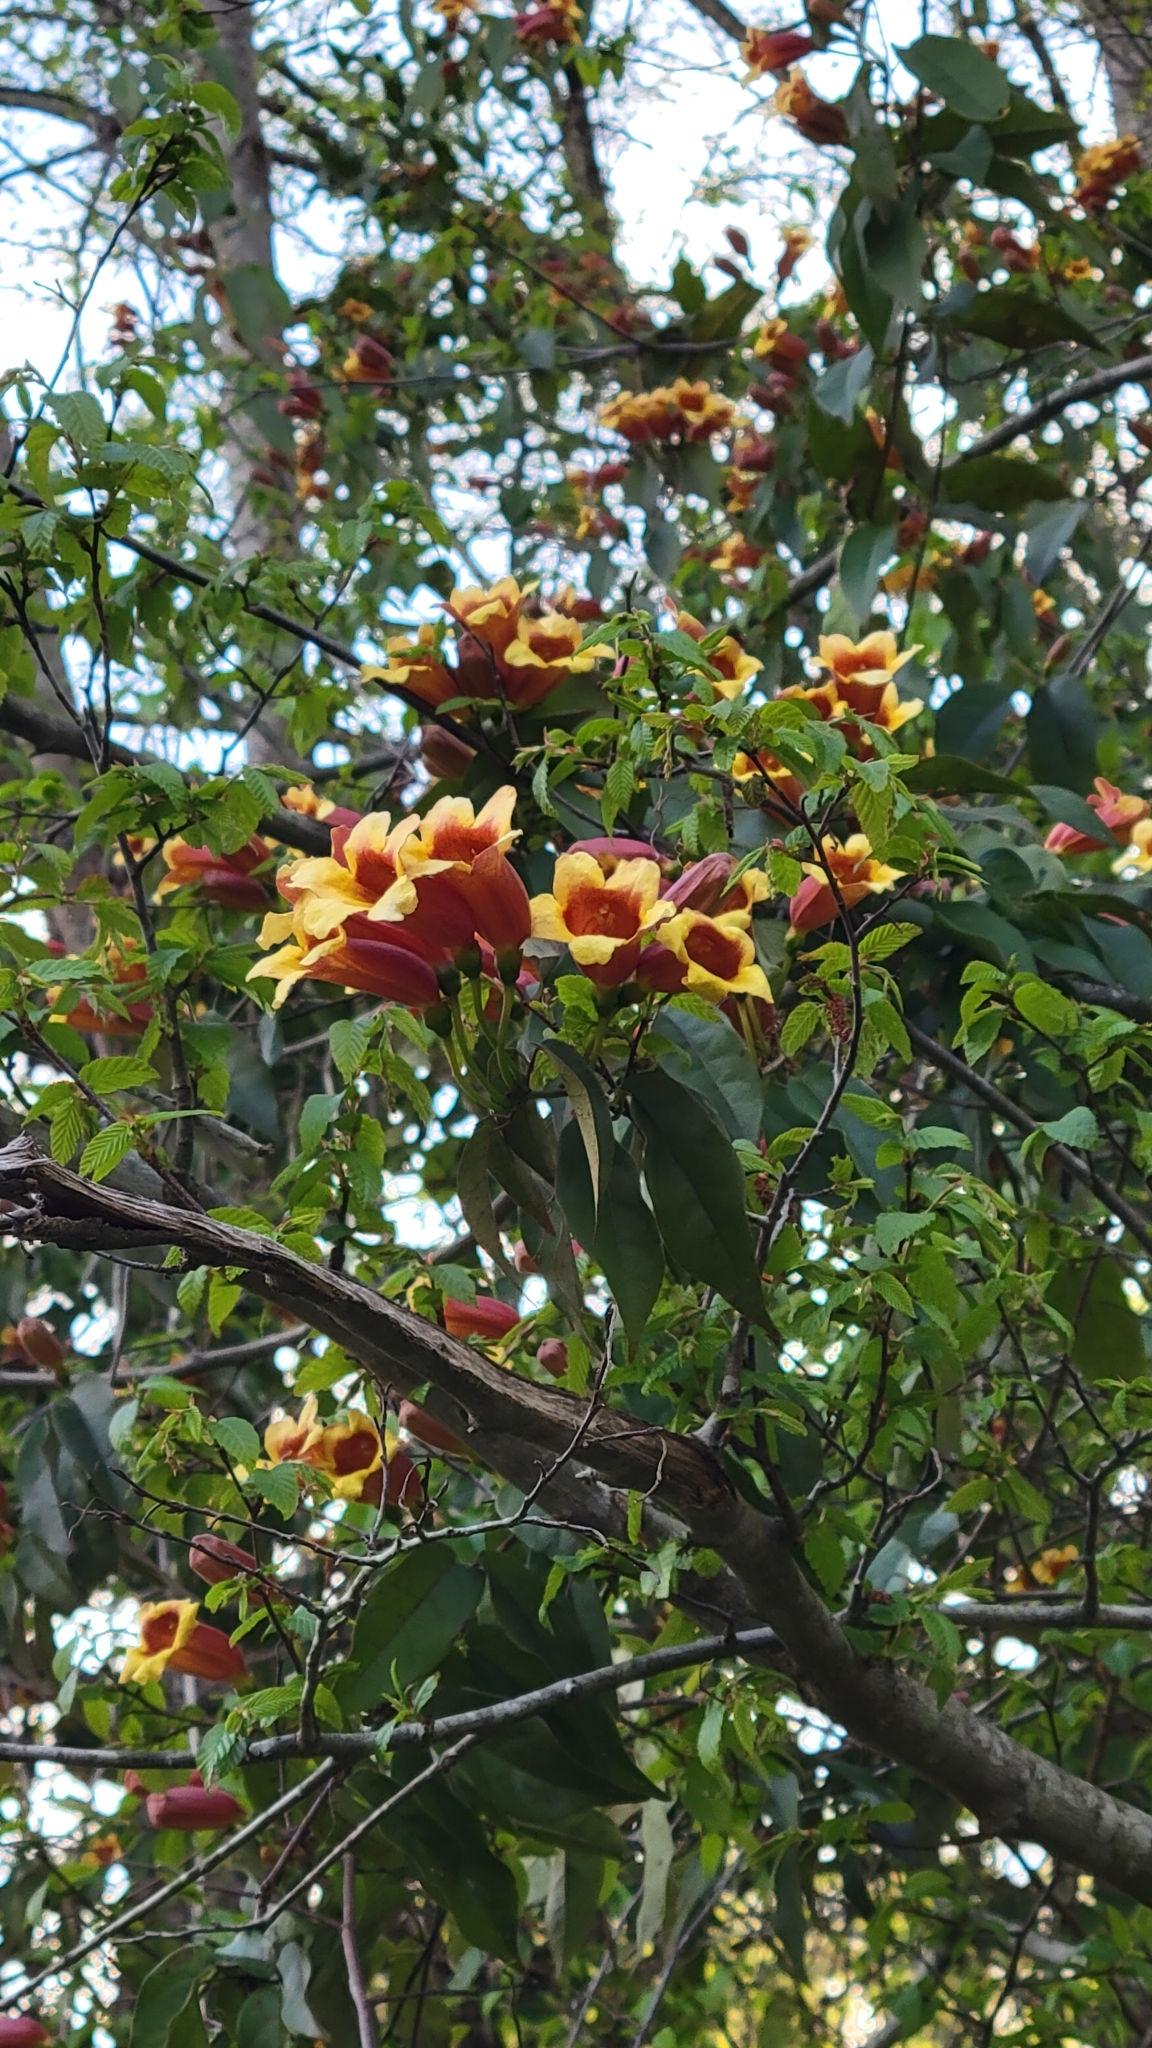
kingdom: Plantae
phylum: Tracheophyta
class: Magnoliopsida
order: Lamiales
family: Bignoniaceae
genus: Bignonia
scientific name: Bignonia capreolata
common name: Crossvine
